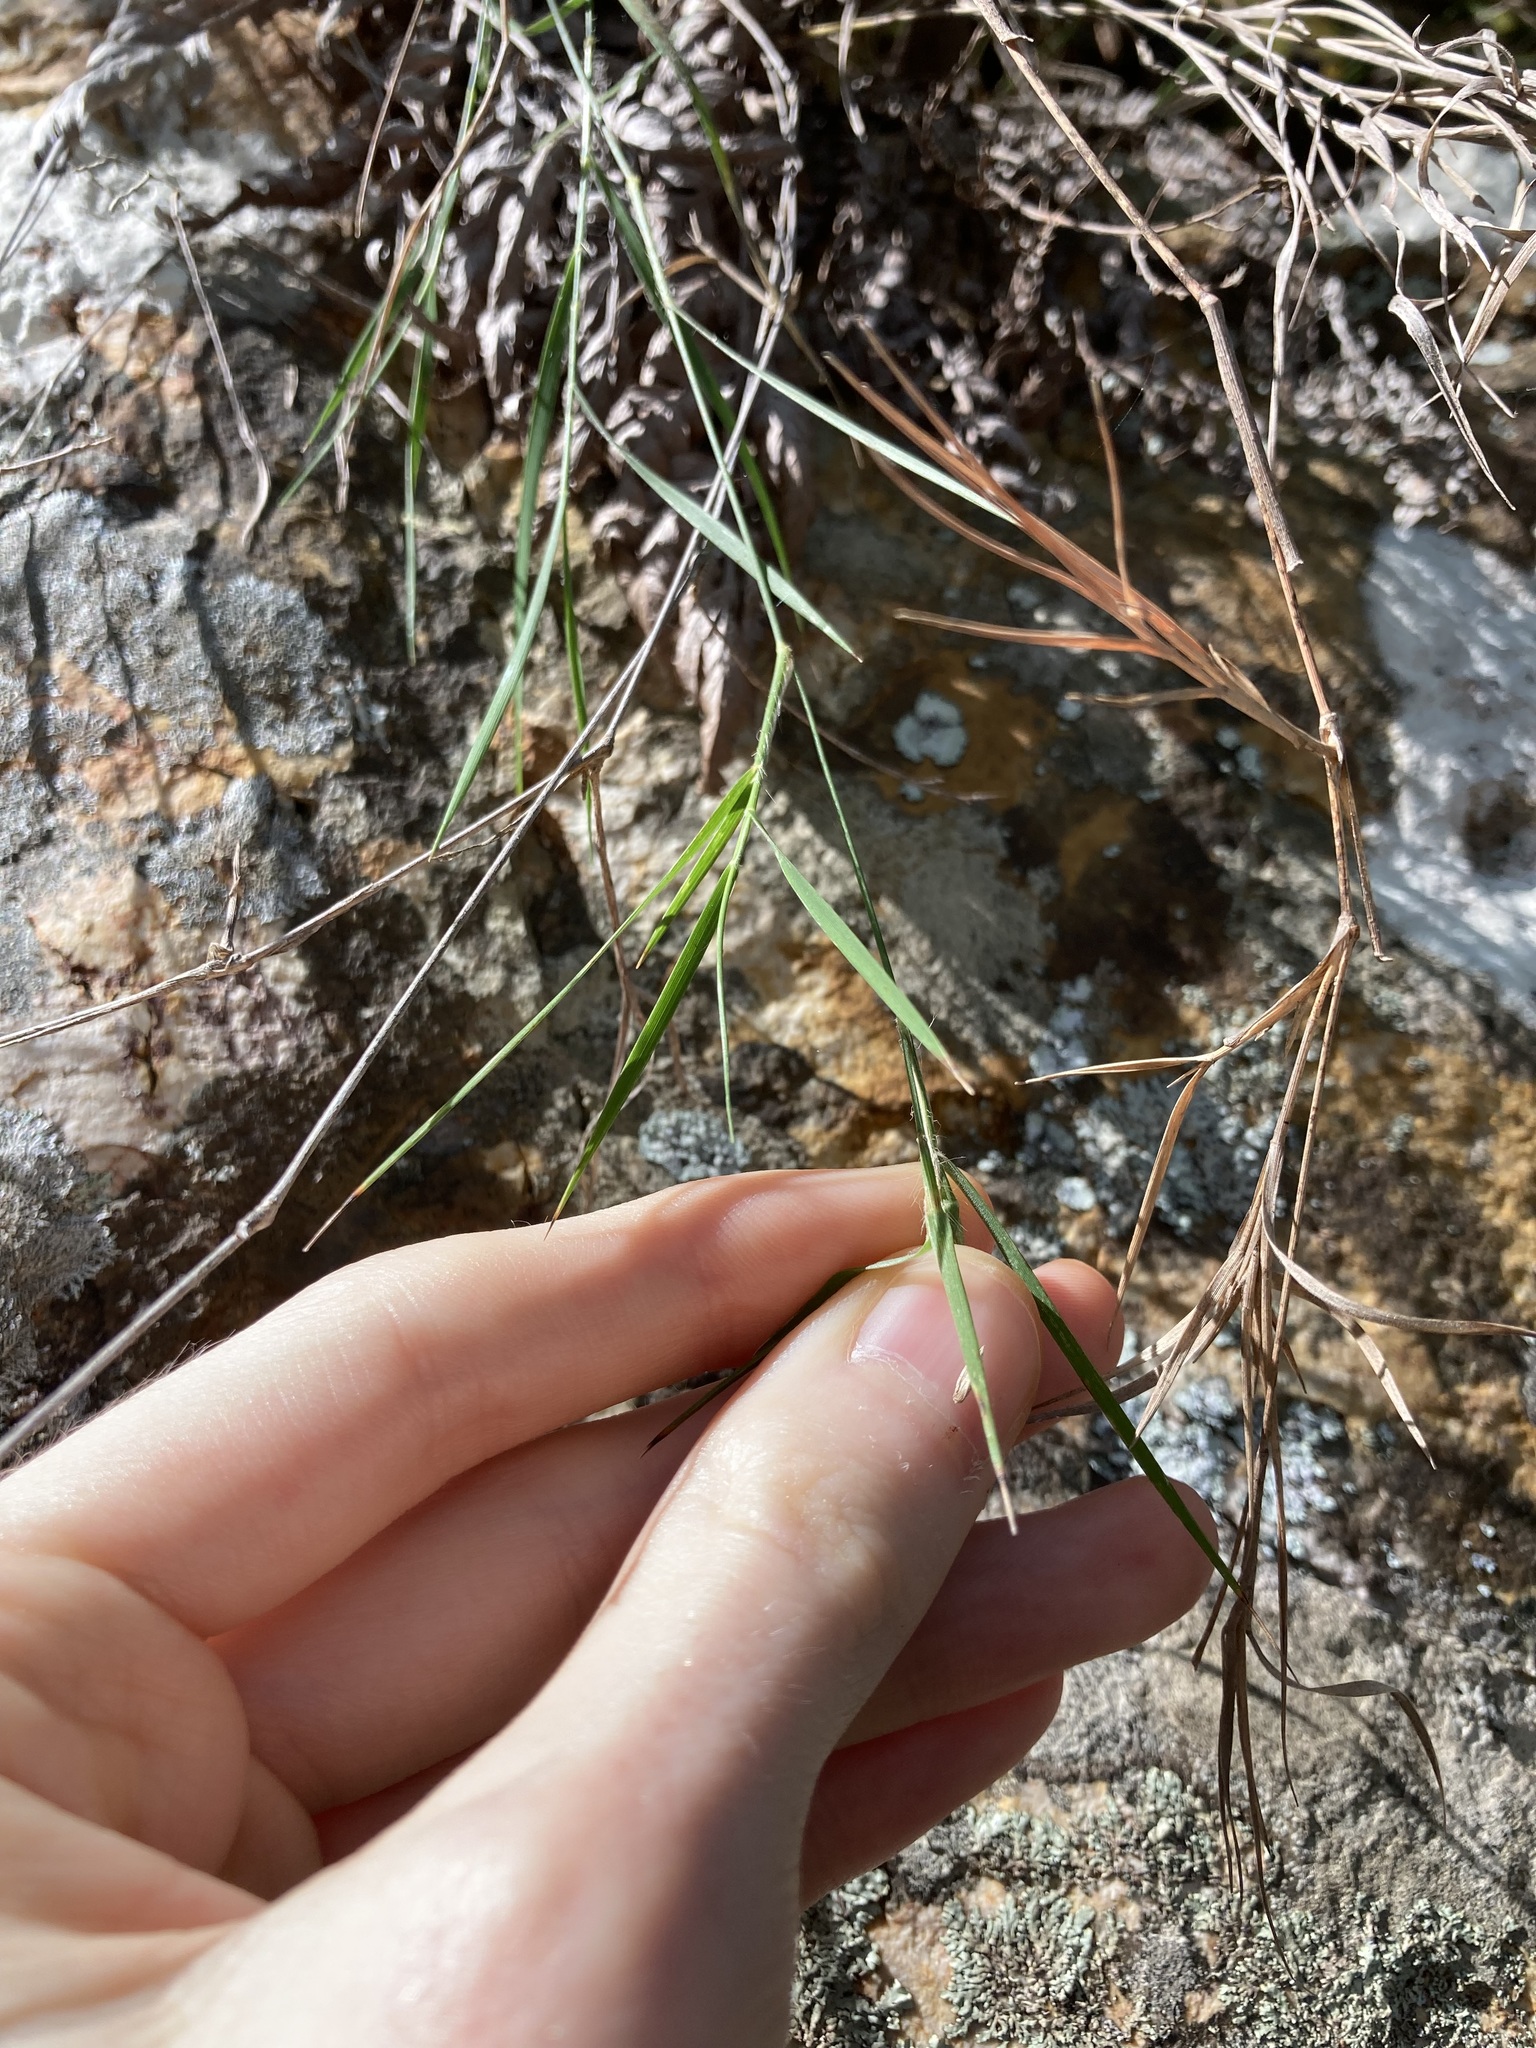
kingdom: Plantae
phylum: Tracheophyta
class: Liliopsida
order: Poales
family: Poaceae
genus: Dimorphochloa
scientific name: Dimorphochloa rigida
